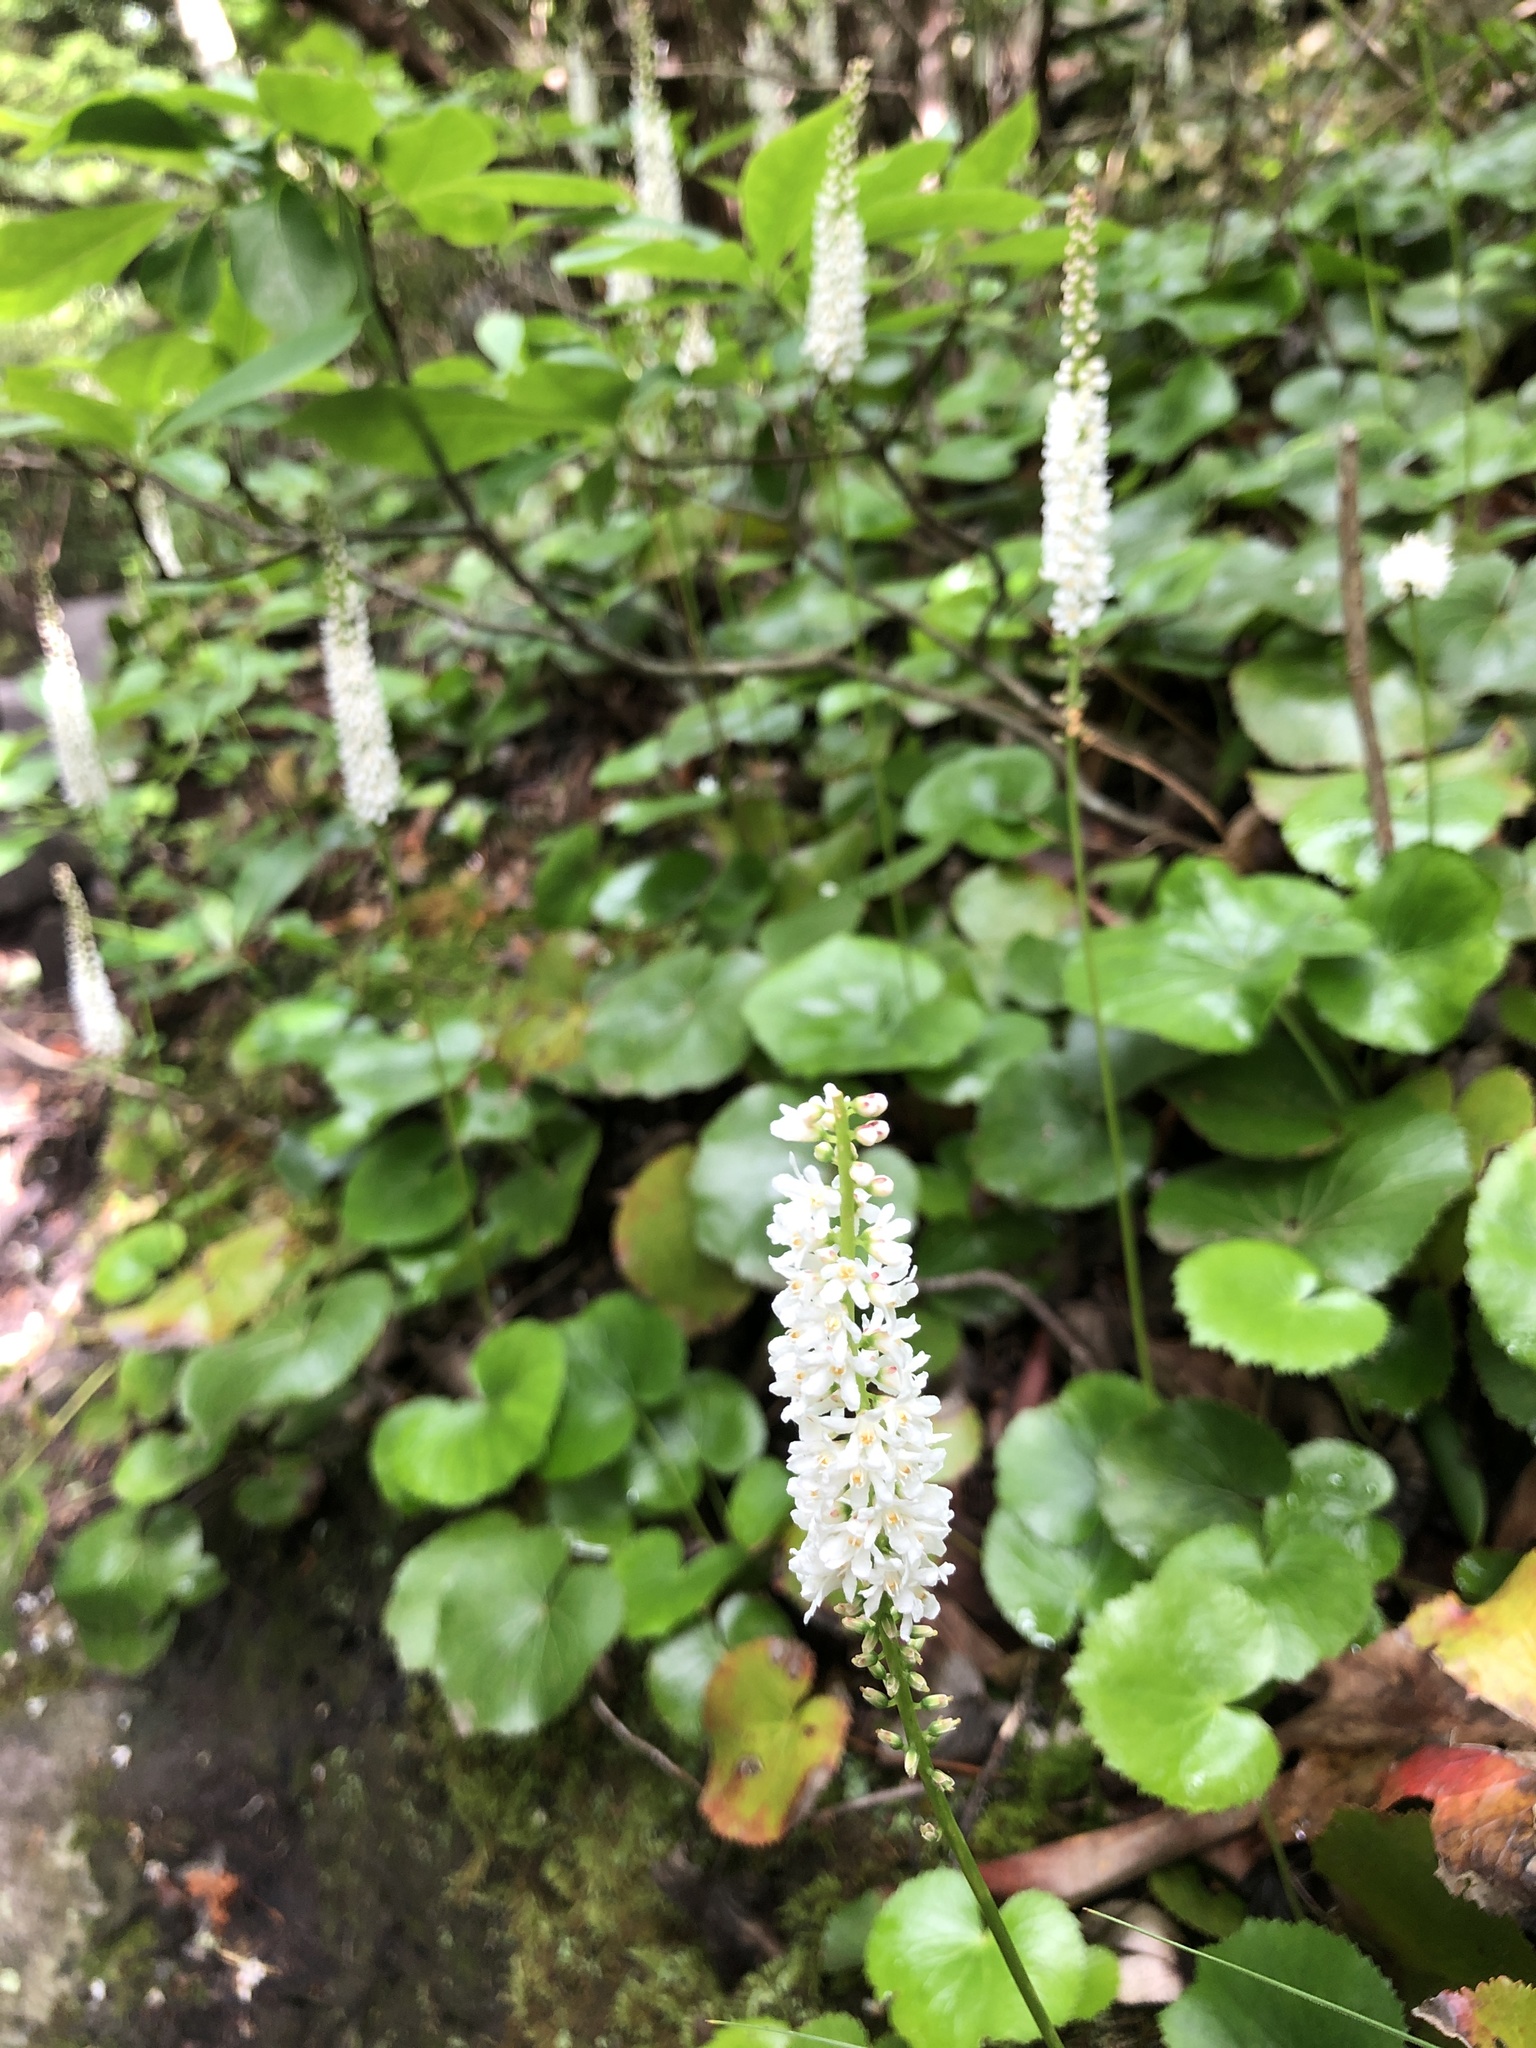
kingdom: Plantae
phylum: Tracheophyta
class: Magnoliopsida
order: Ericales
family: Diapensiaceae
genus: Galax
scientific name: Galax urceolata
